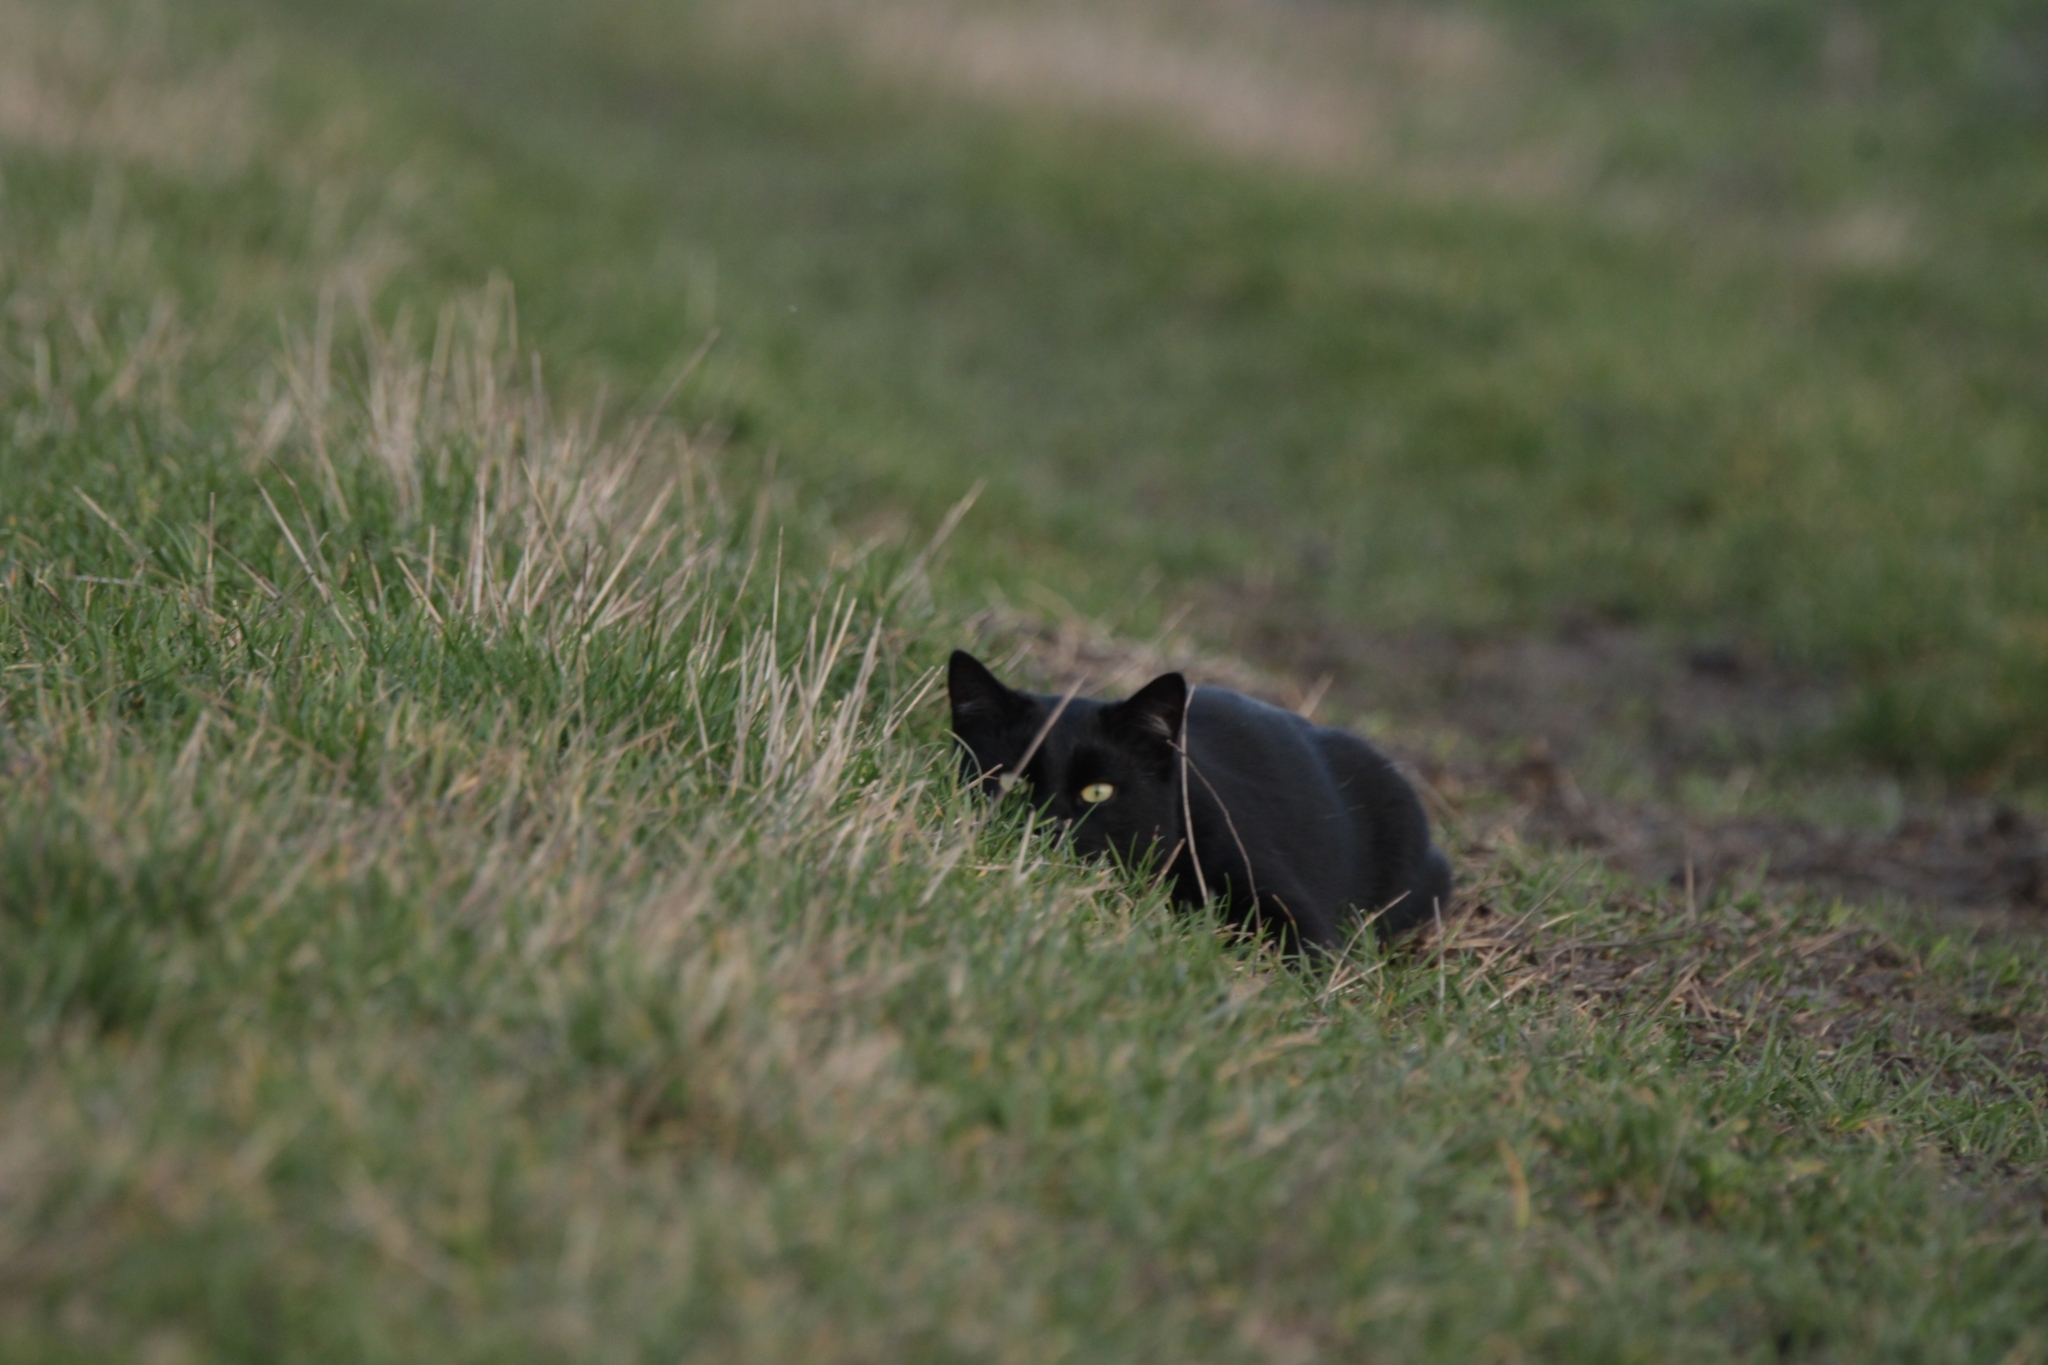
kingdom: Animalia
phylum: Chordata
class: Mammalia
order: Carnivora
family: Felidae
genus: Felis
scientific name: Felis catus
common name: Domestic cat
